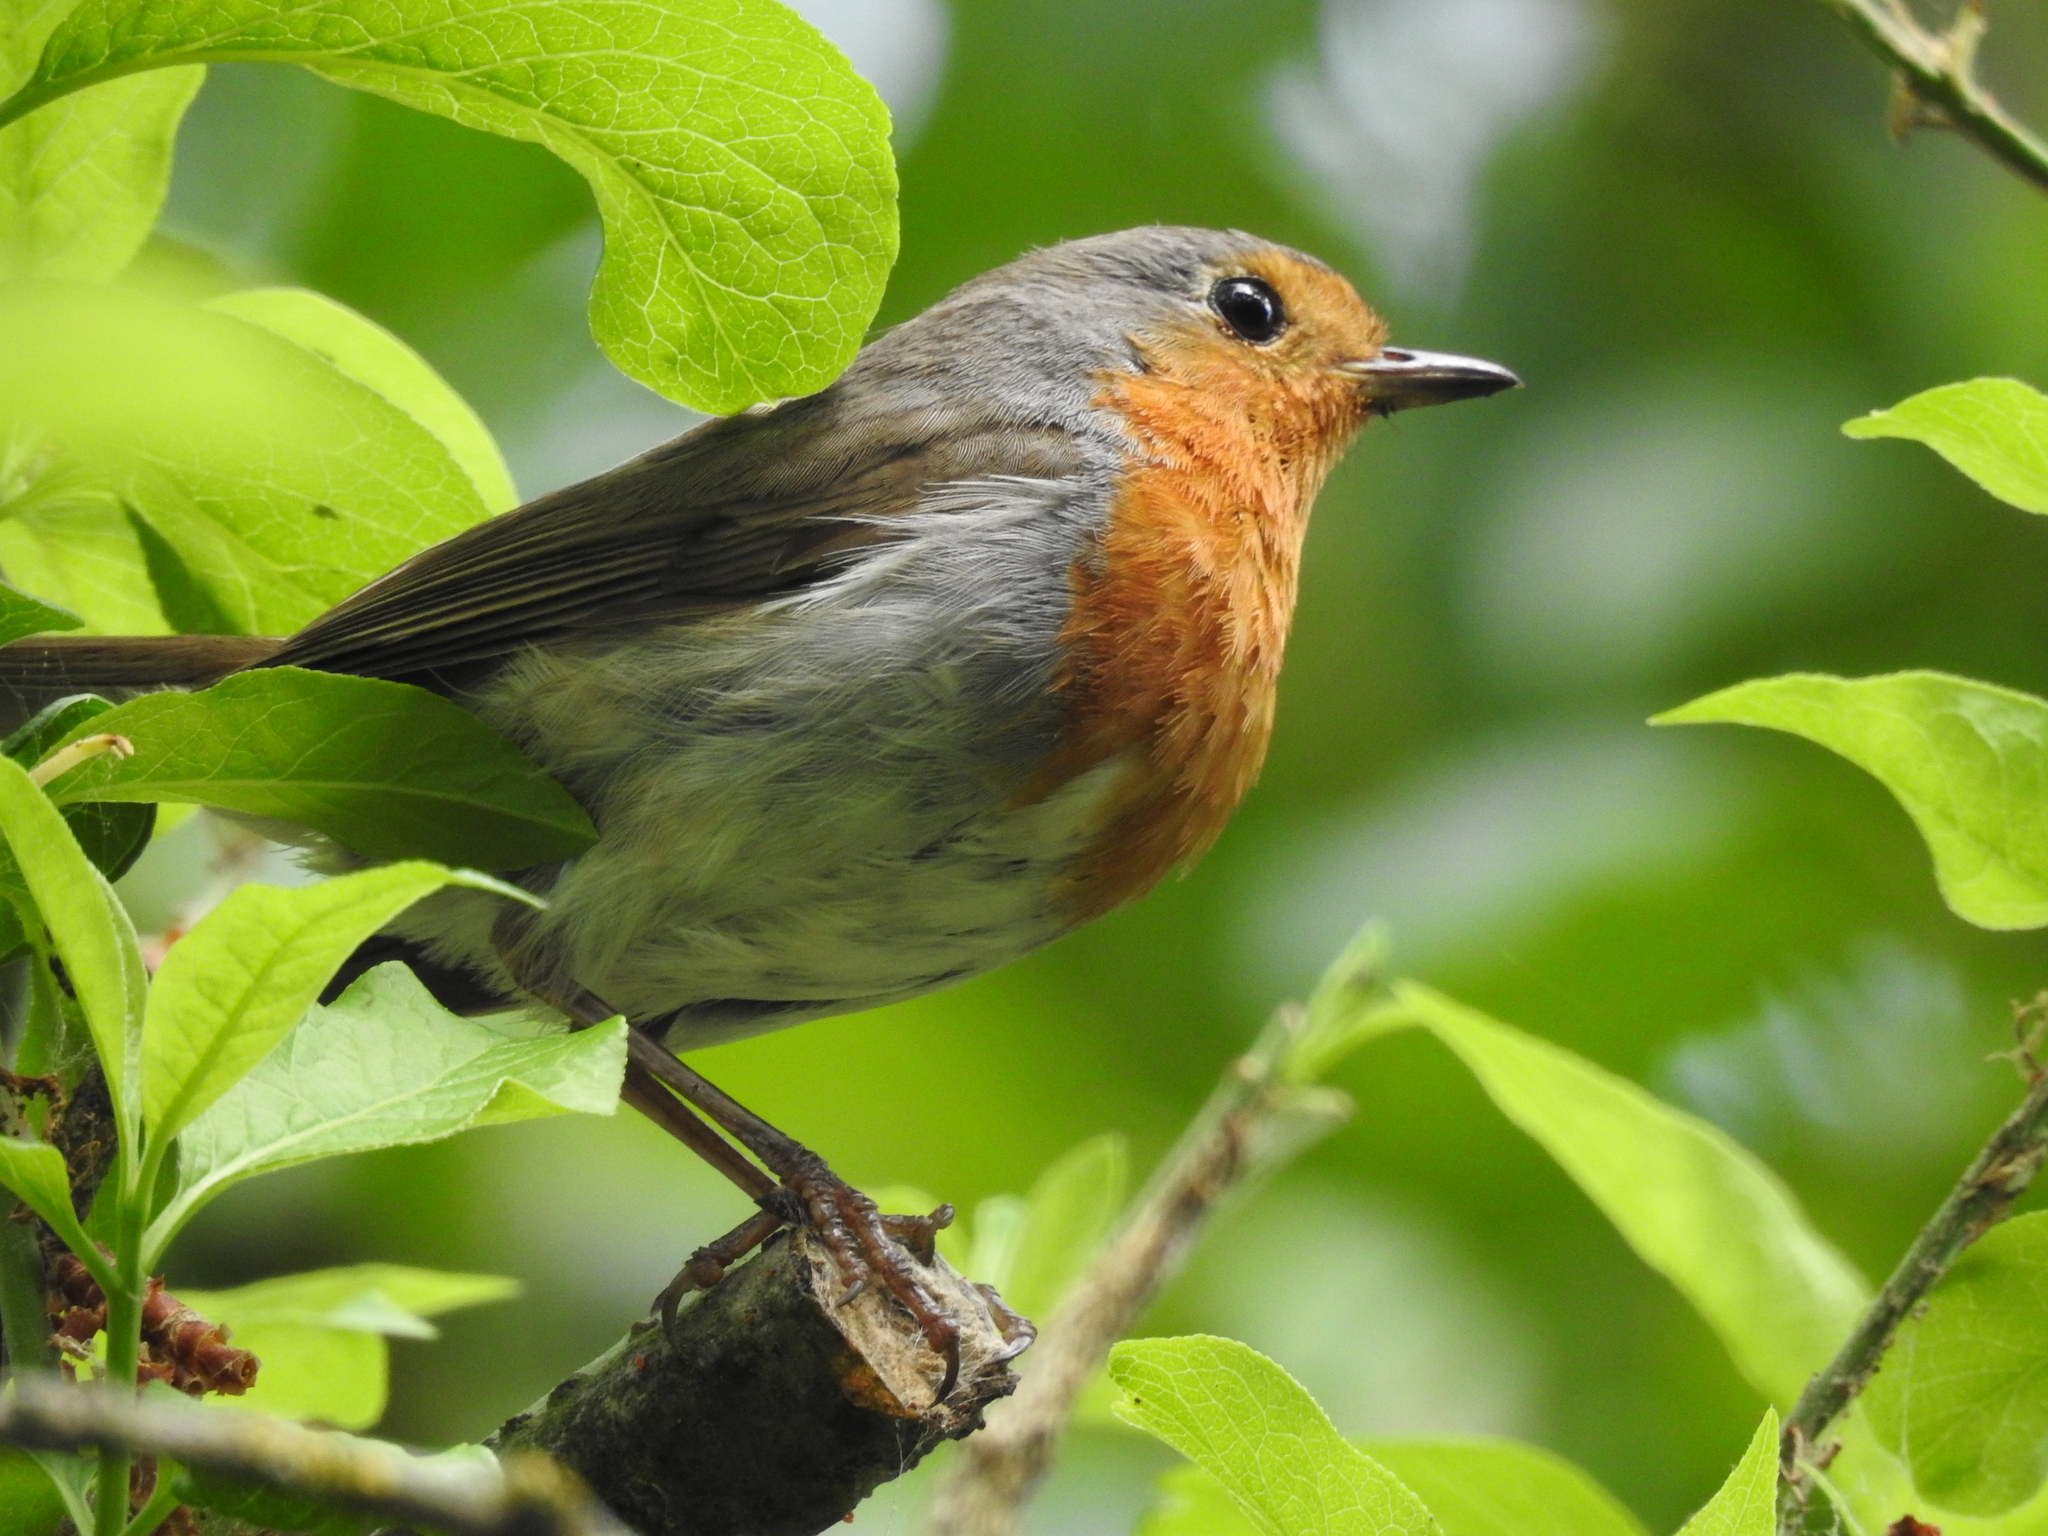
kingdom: Animalia
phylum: Chordata
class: Aves
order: Passeriformes
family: Muscicapidae
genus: Erithacus
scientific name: Erithacus rubecula
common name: European robin
